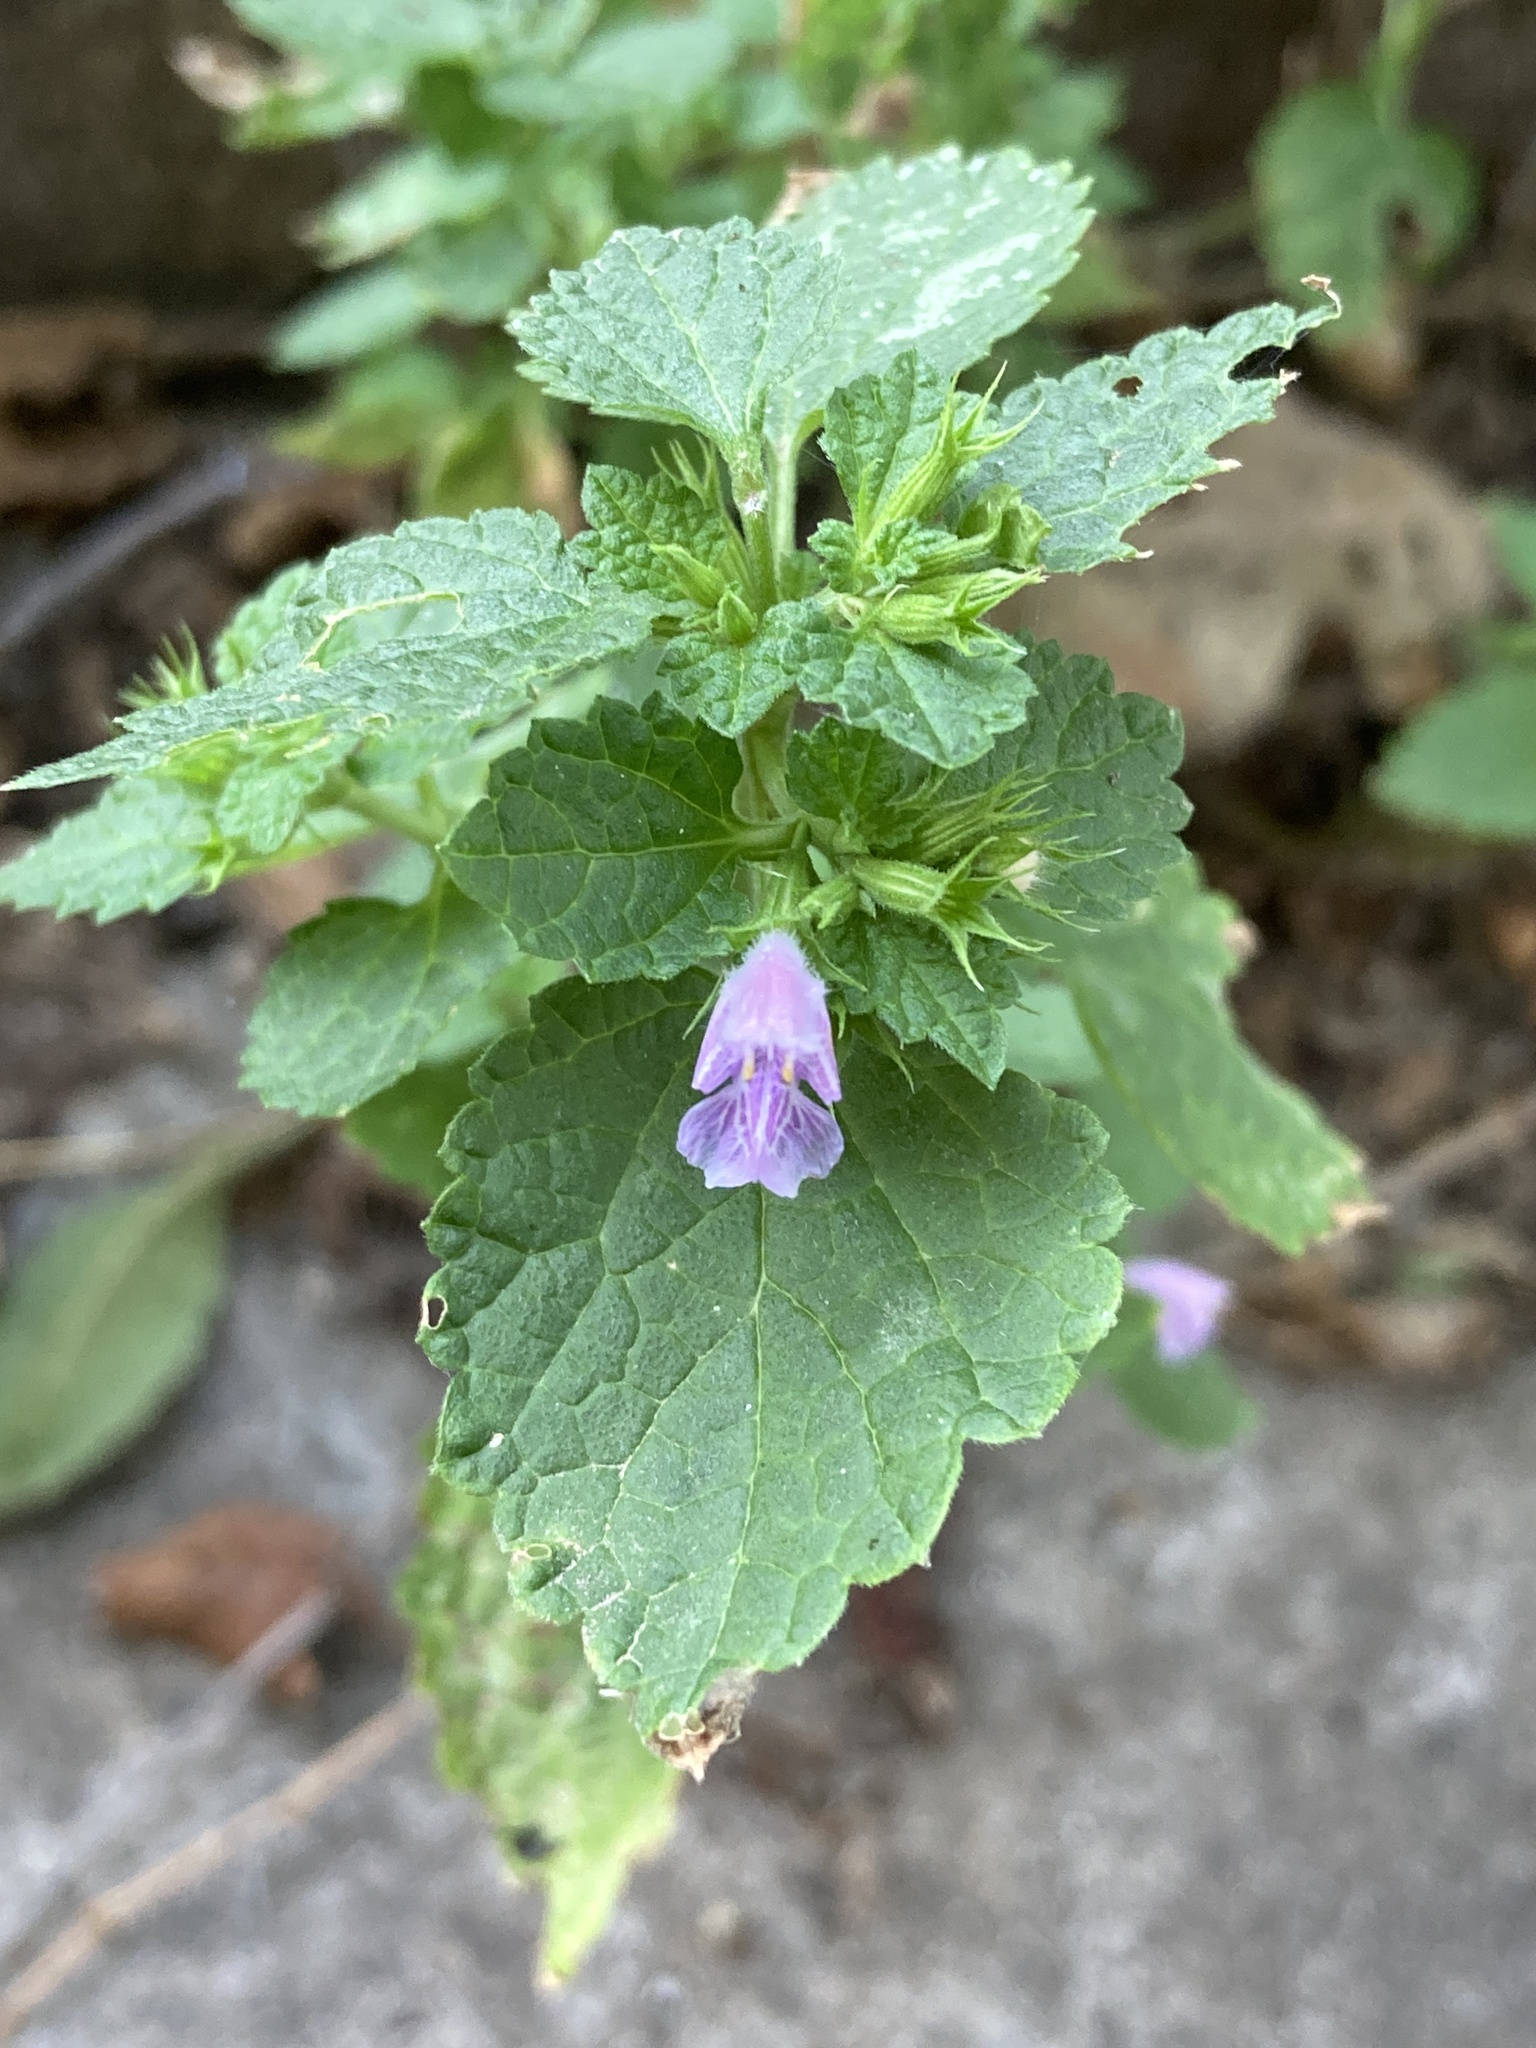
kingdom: Plantae
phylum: Tracheophyta
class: Magnoliopsida
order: Lamiales
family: Lamiaceae
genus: Ballota
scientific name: Ballota nigra
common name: Black horehound
